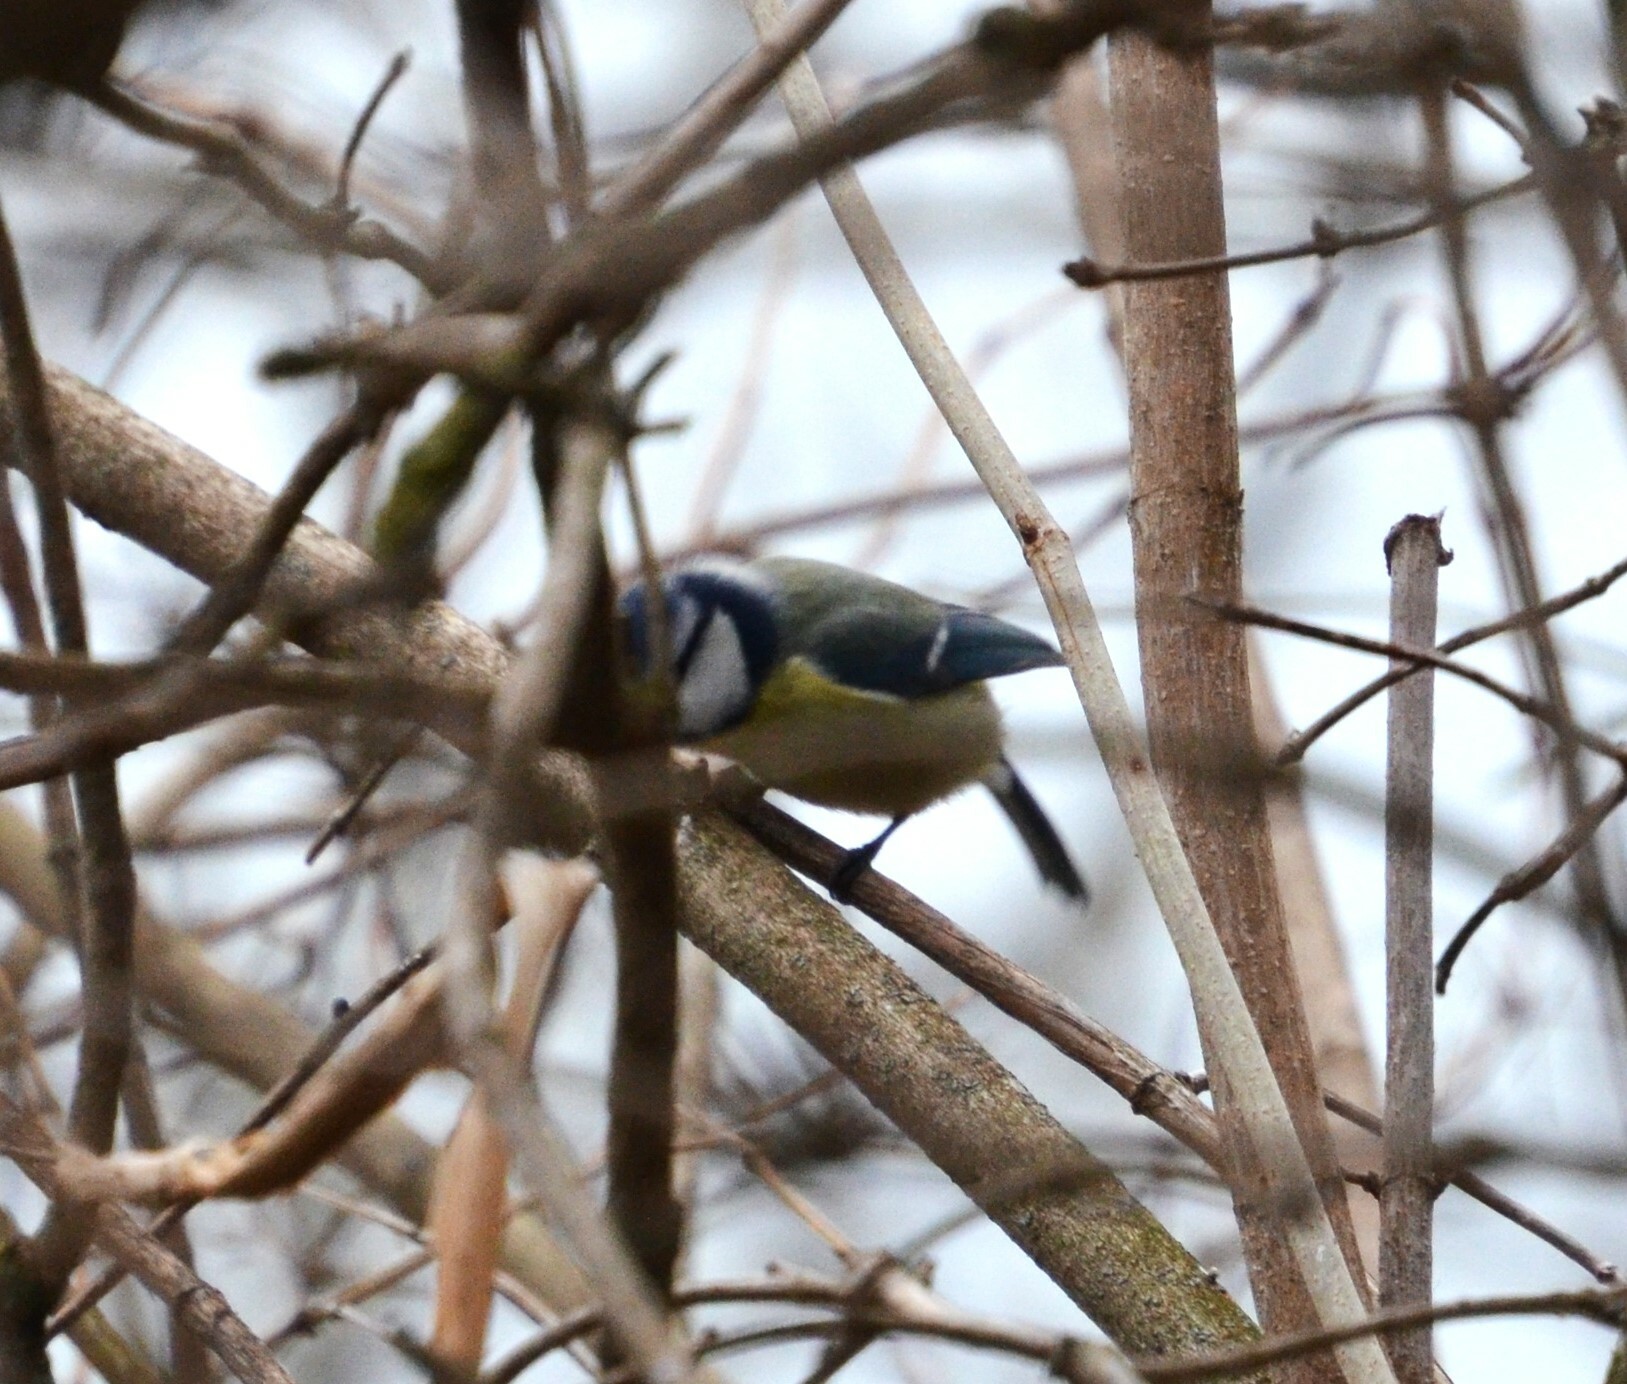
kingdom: Animalia
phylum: Chordata
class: Aves
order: Passeriformes
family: Paridae
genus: Cyanistes
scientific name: Cyanistes caeruleus
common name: Eurasian blue tit
